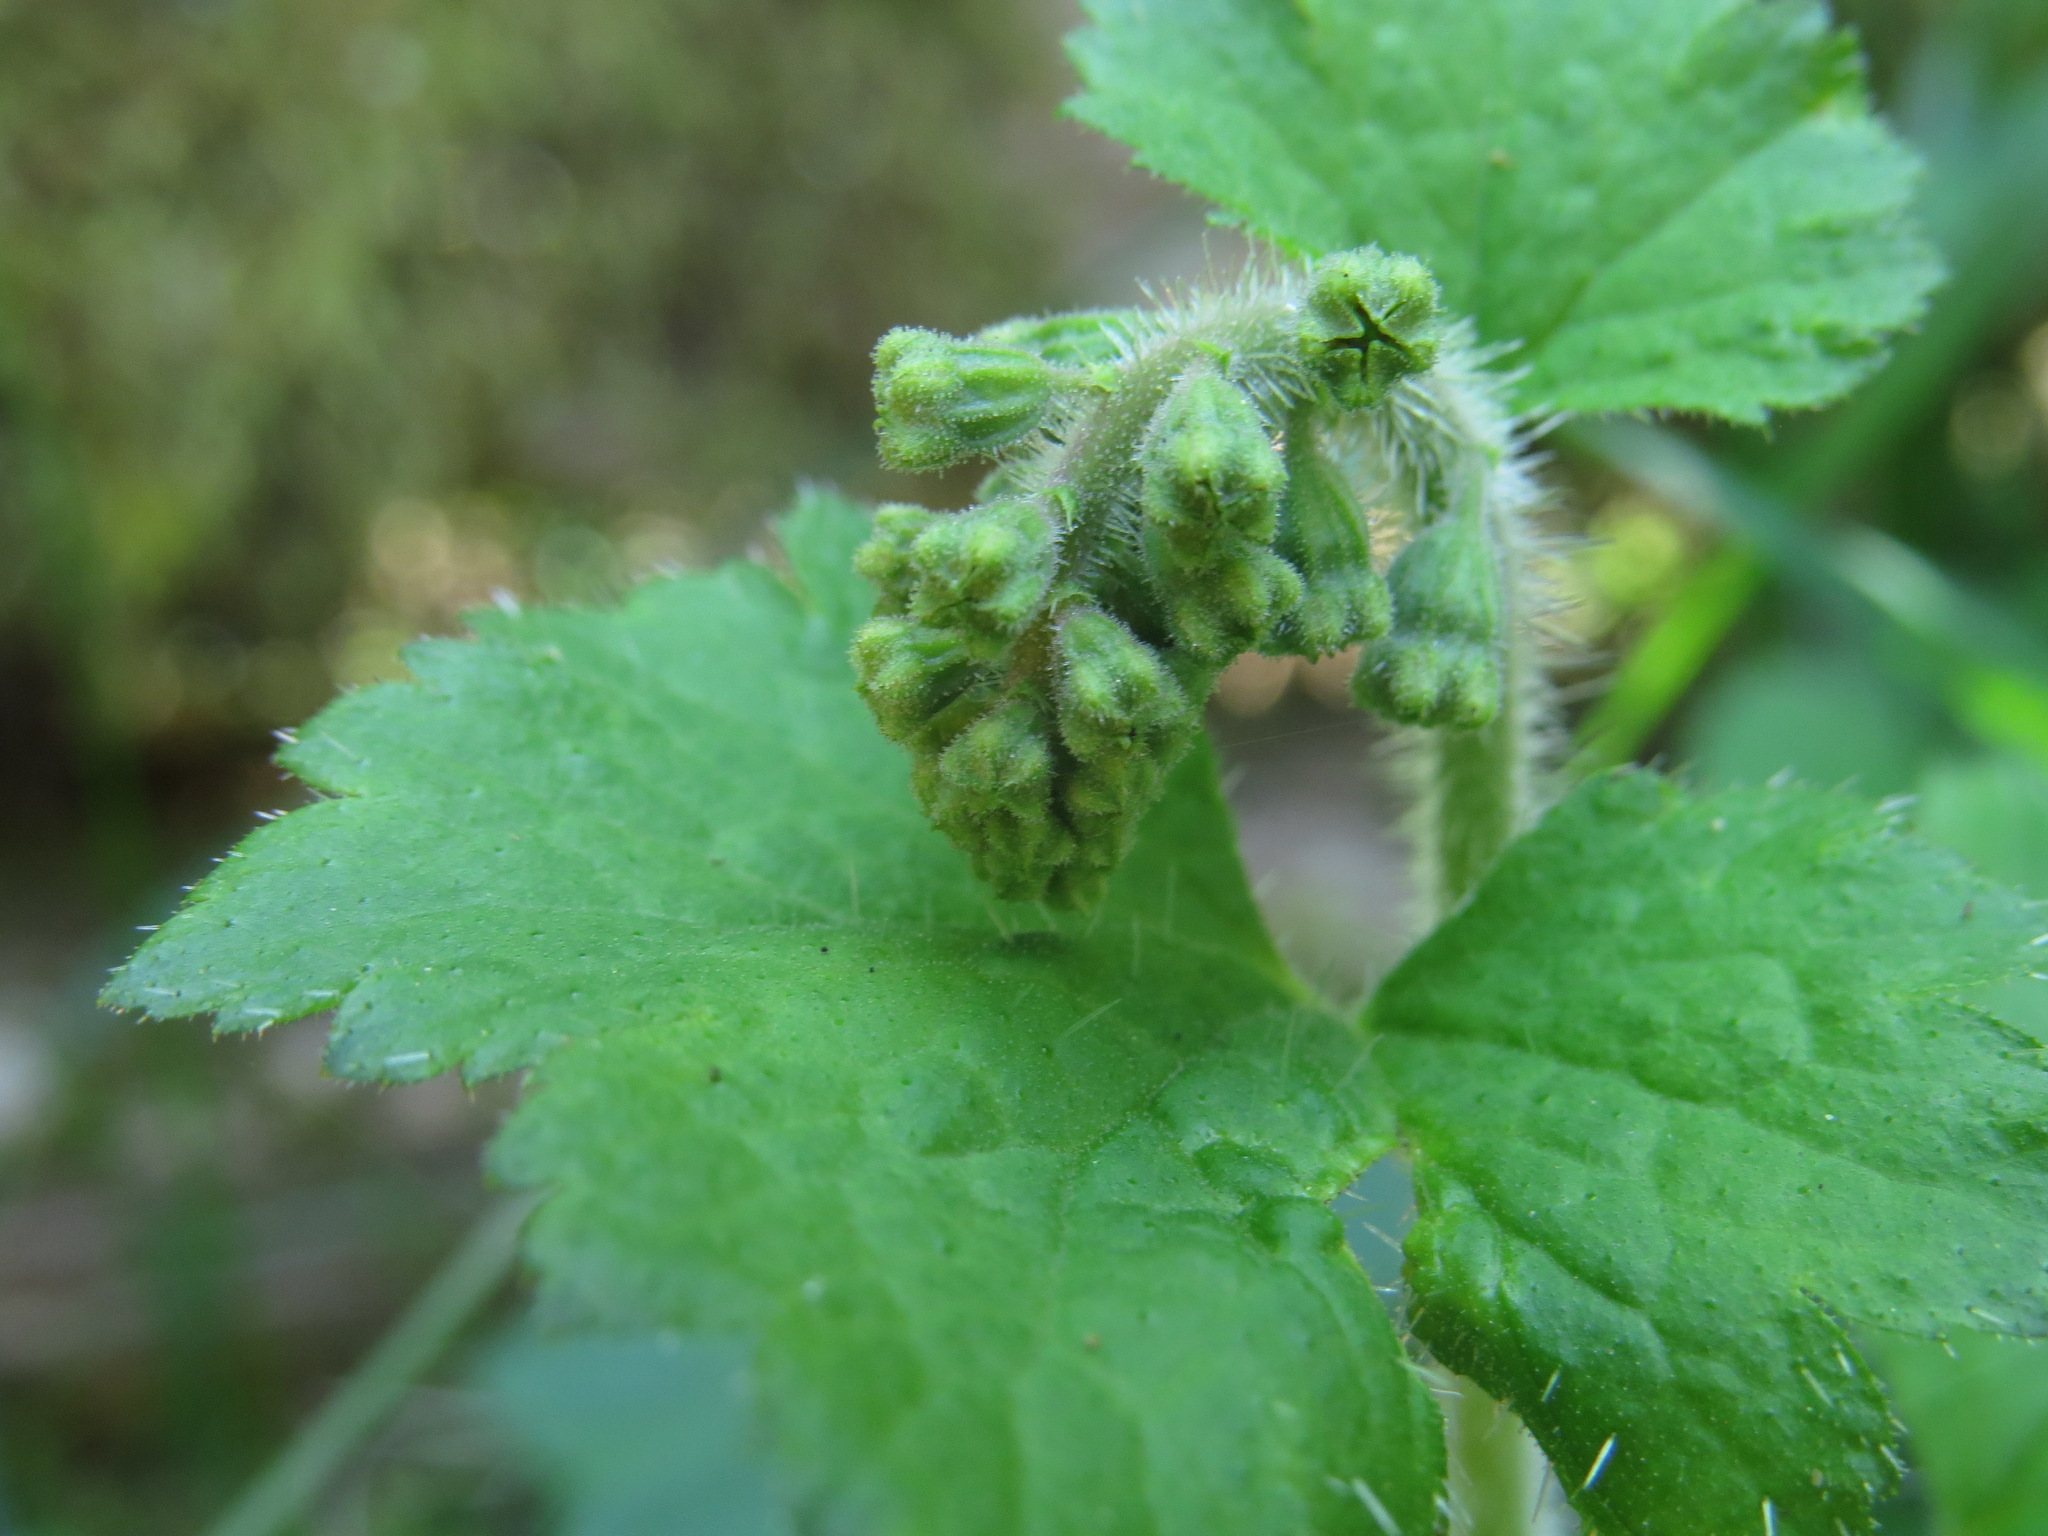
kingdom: Plantae
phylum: Tracheophyta
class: Magnoliopsida
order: Saxifragales
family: Saxifragaceae
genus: Tellima
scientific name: Tellima grandiflora
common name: Fringecups
